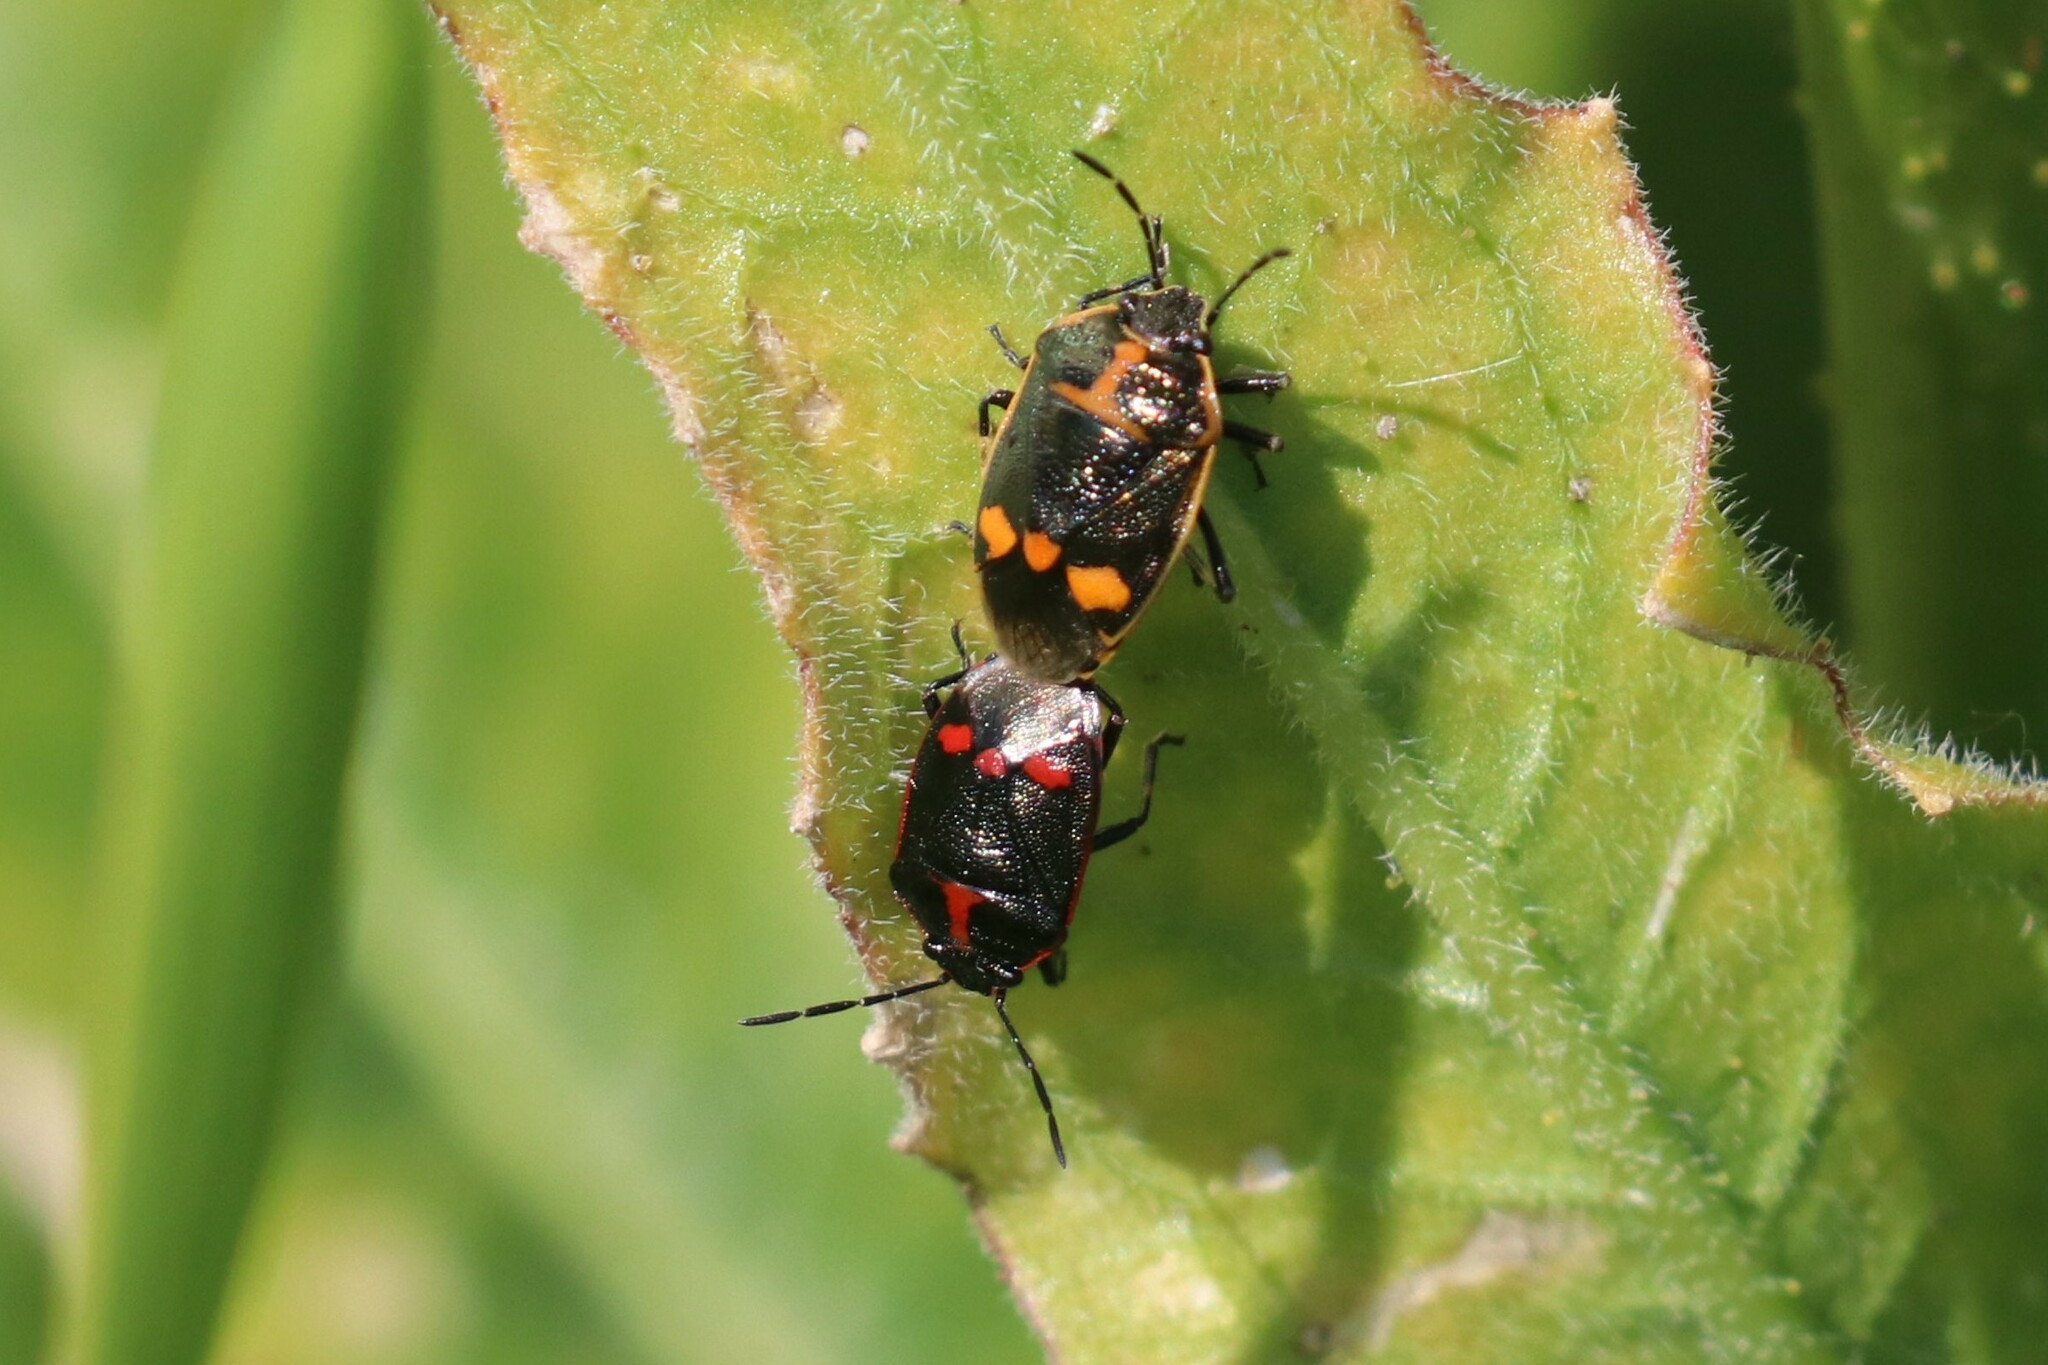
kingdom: Animalia
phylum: Arthropoda
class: Insecta
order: Hemiptera
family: Pentatomidae
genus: Eurydema
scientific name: Eurydema oleracea
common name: Cabbage bug
